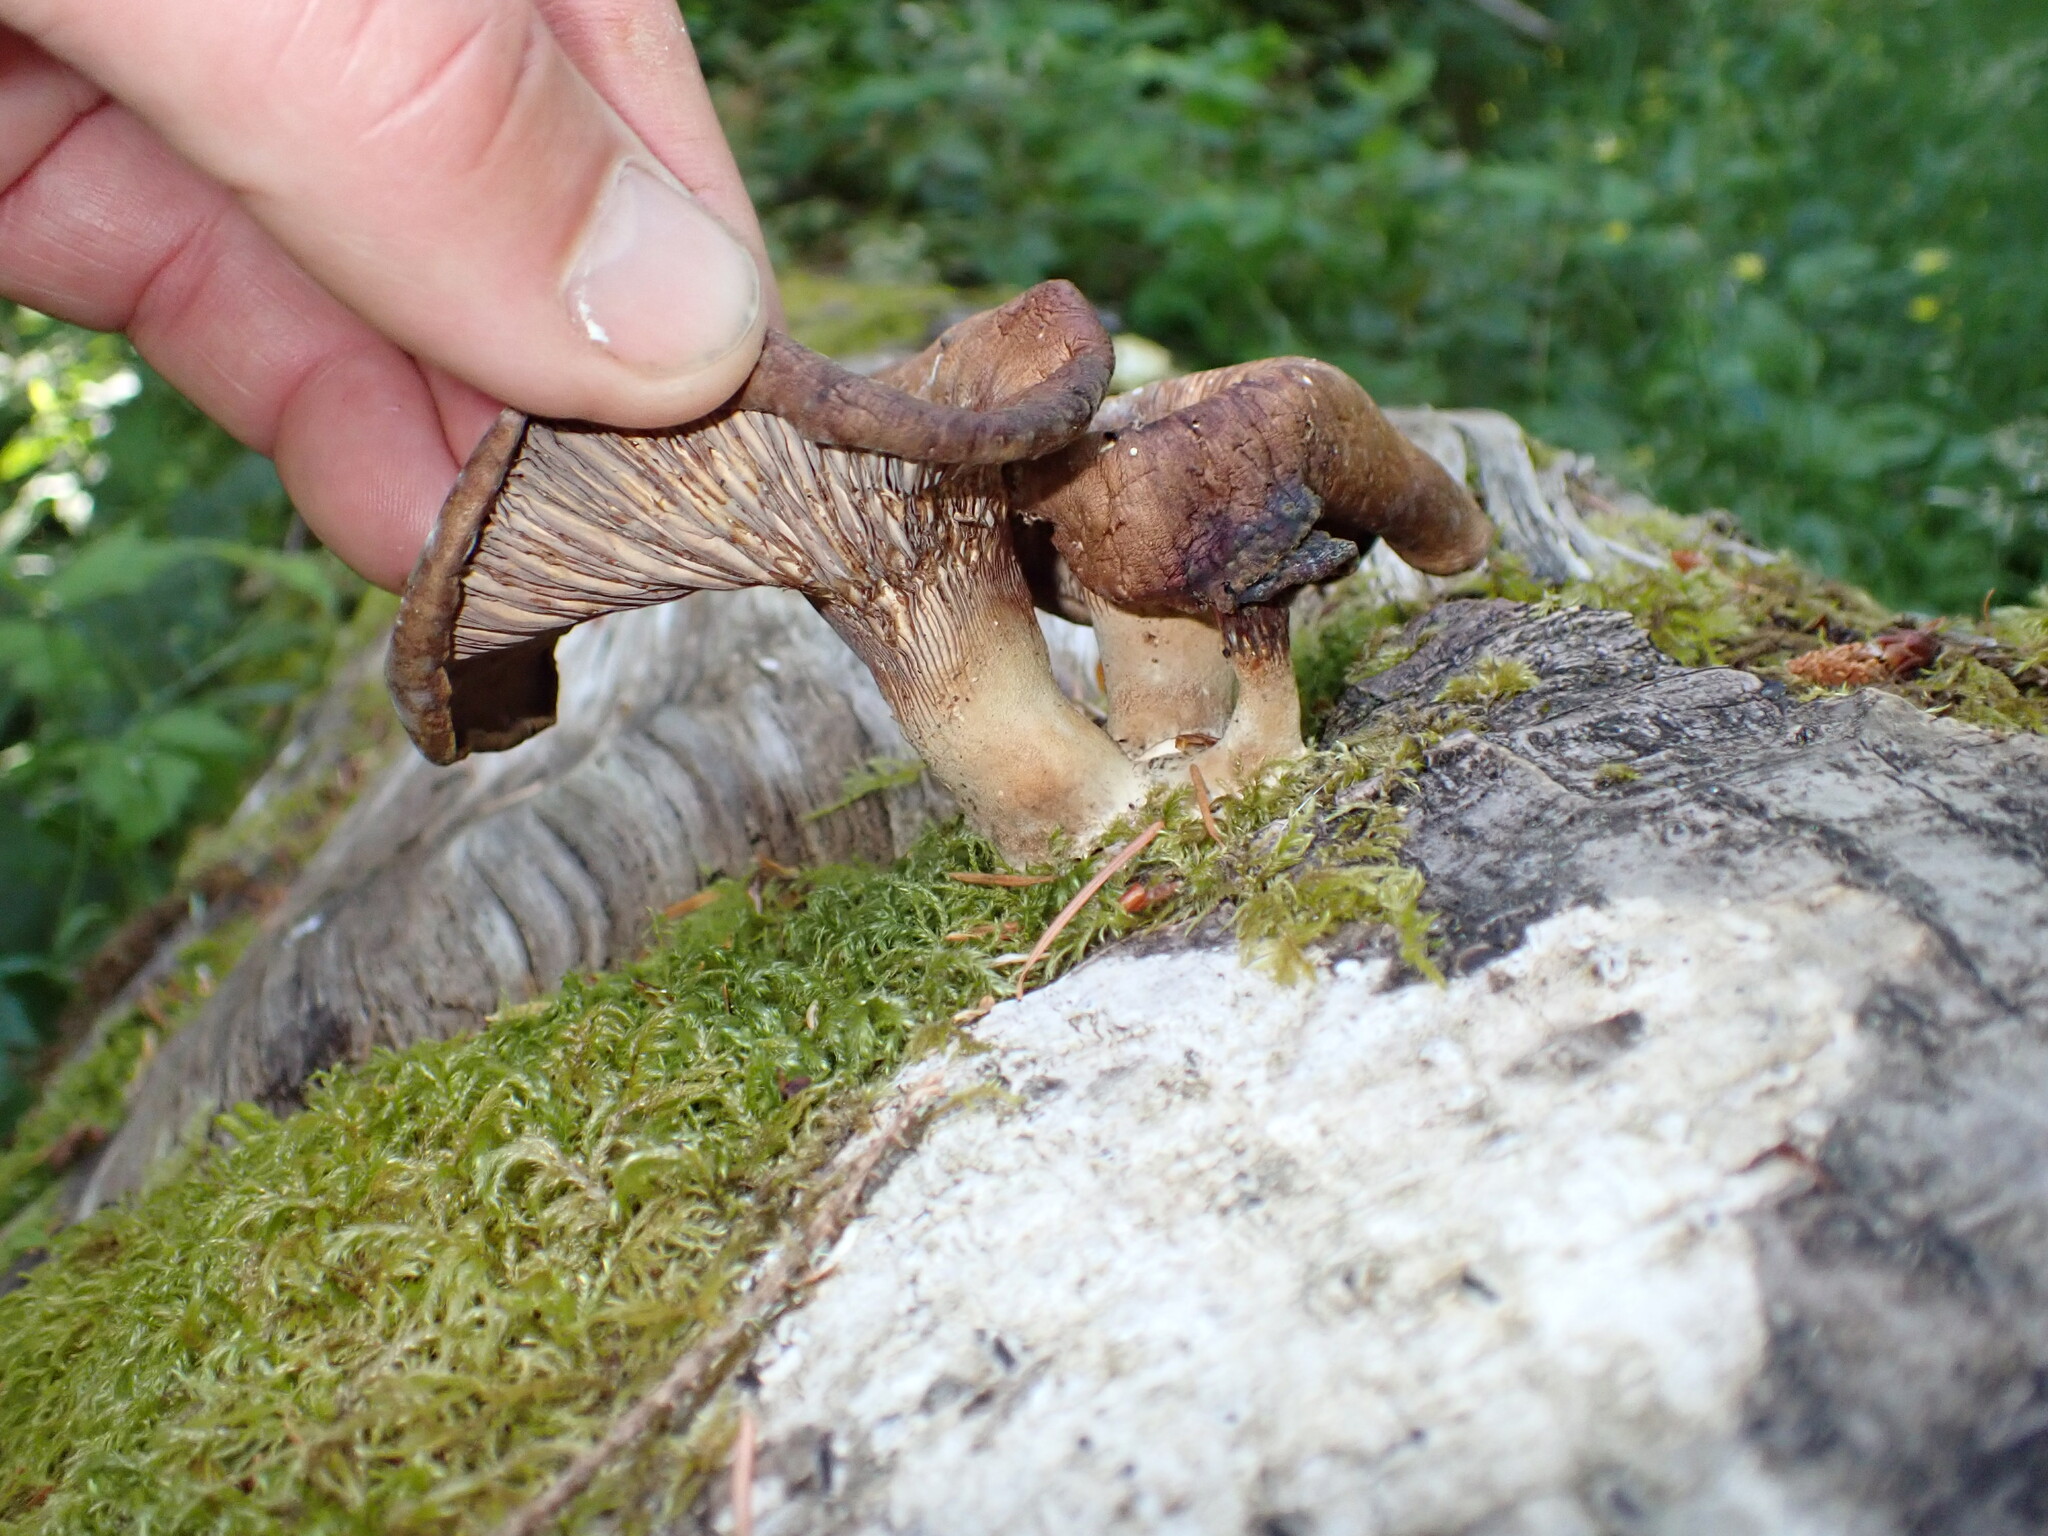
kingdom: Fungi
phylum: Basidiomycota
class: Agaricomycetes
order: Polyporales
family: Panaceae
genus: Panus
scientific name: Panus conchatus
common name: Lilac oysterling
